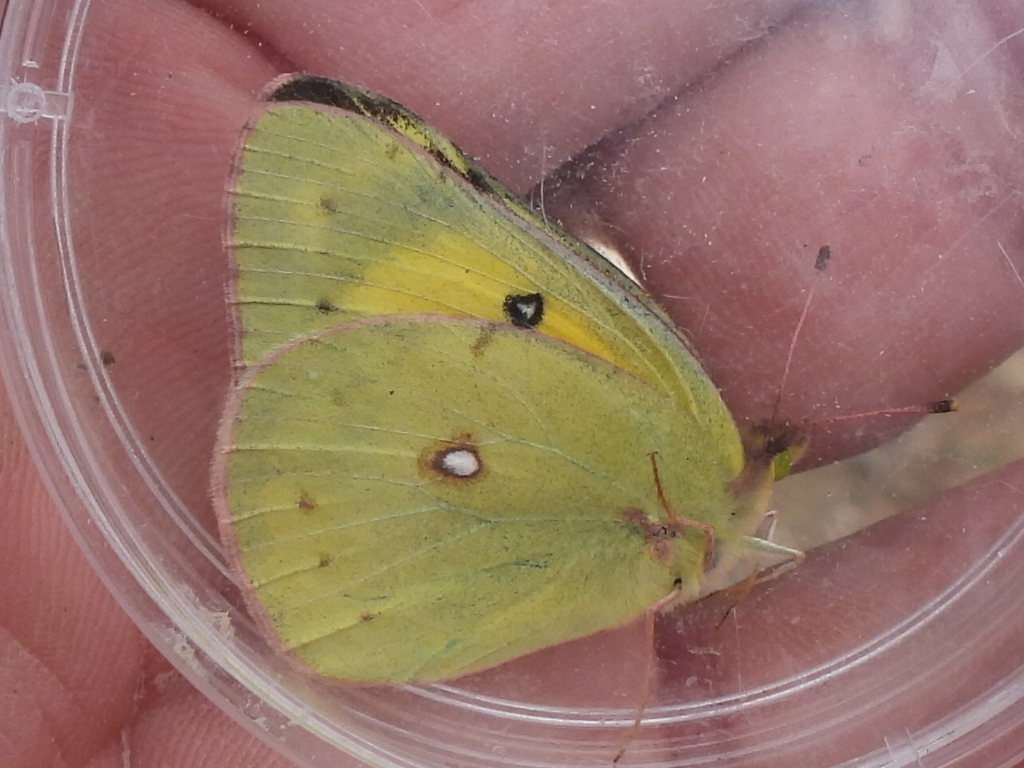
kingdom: Animalia
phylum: Arthropoda
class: Insecta
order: Lepidoptera
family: Pieridae
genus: Colias
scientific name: Colias eurytheme
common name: Alfalfa butterfly
